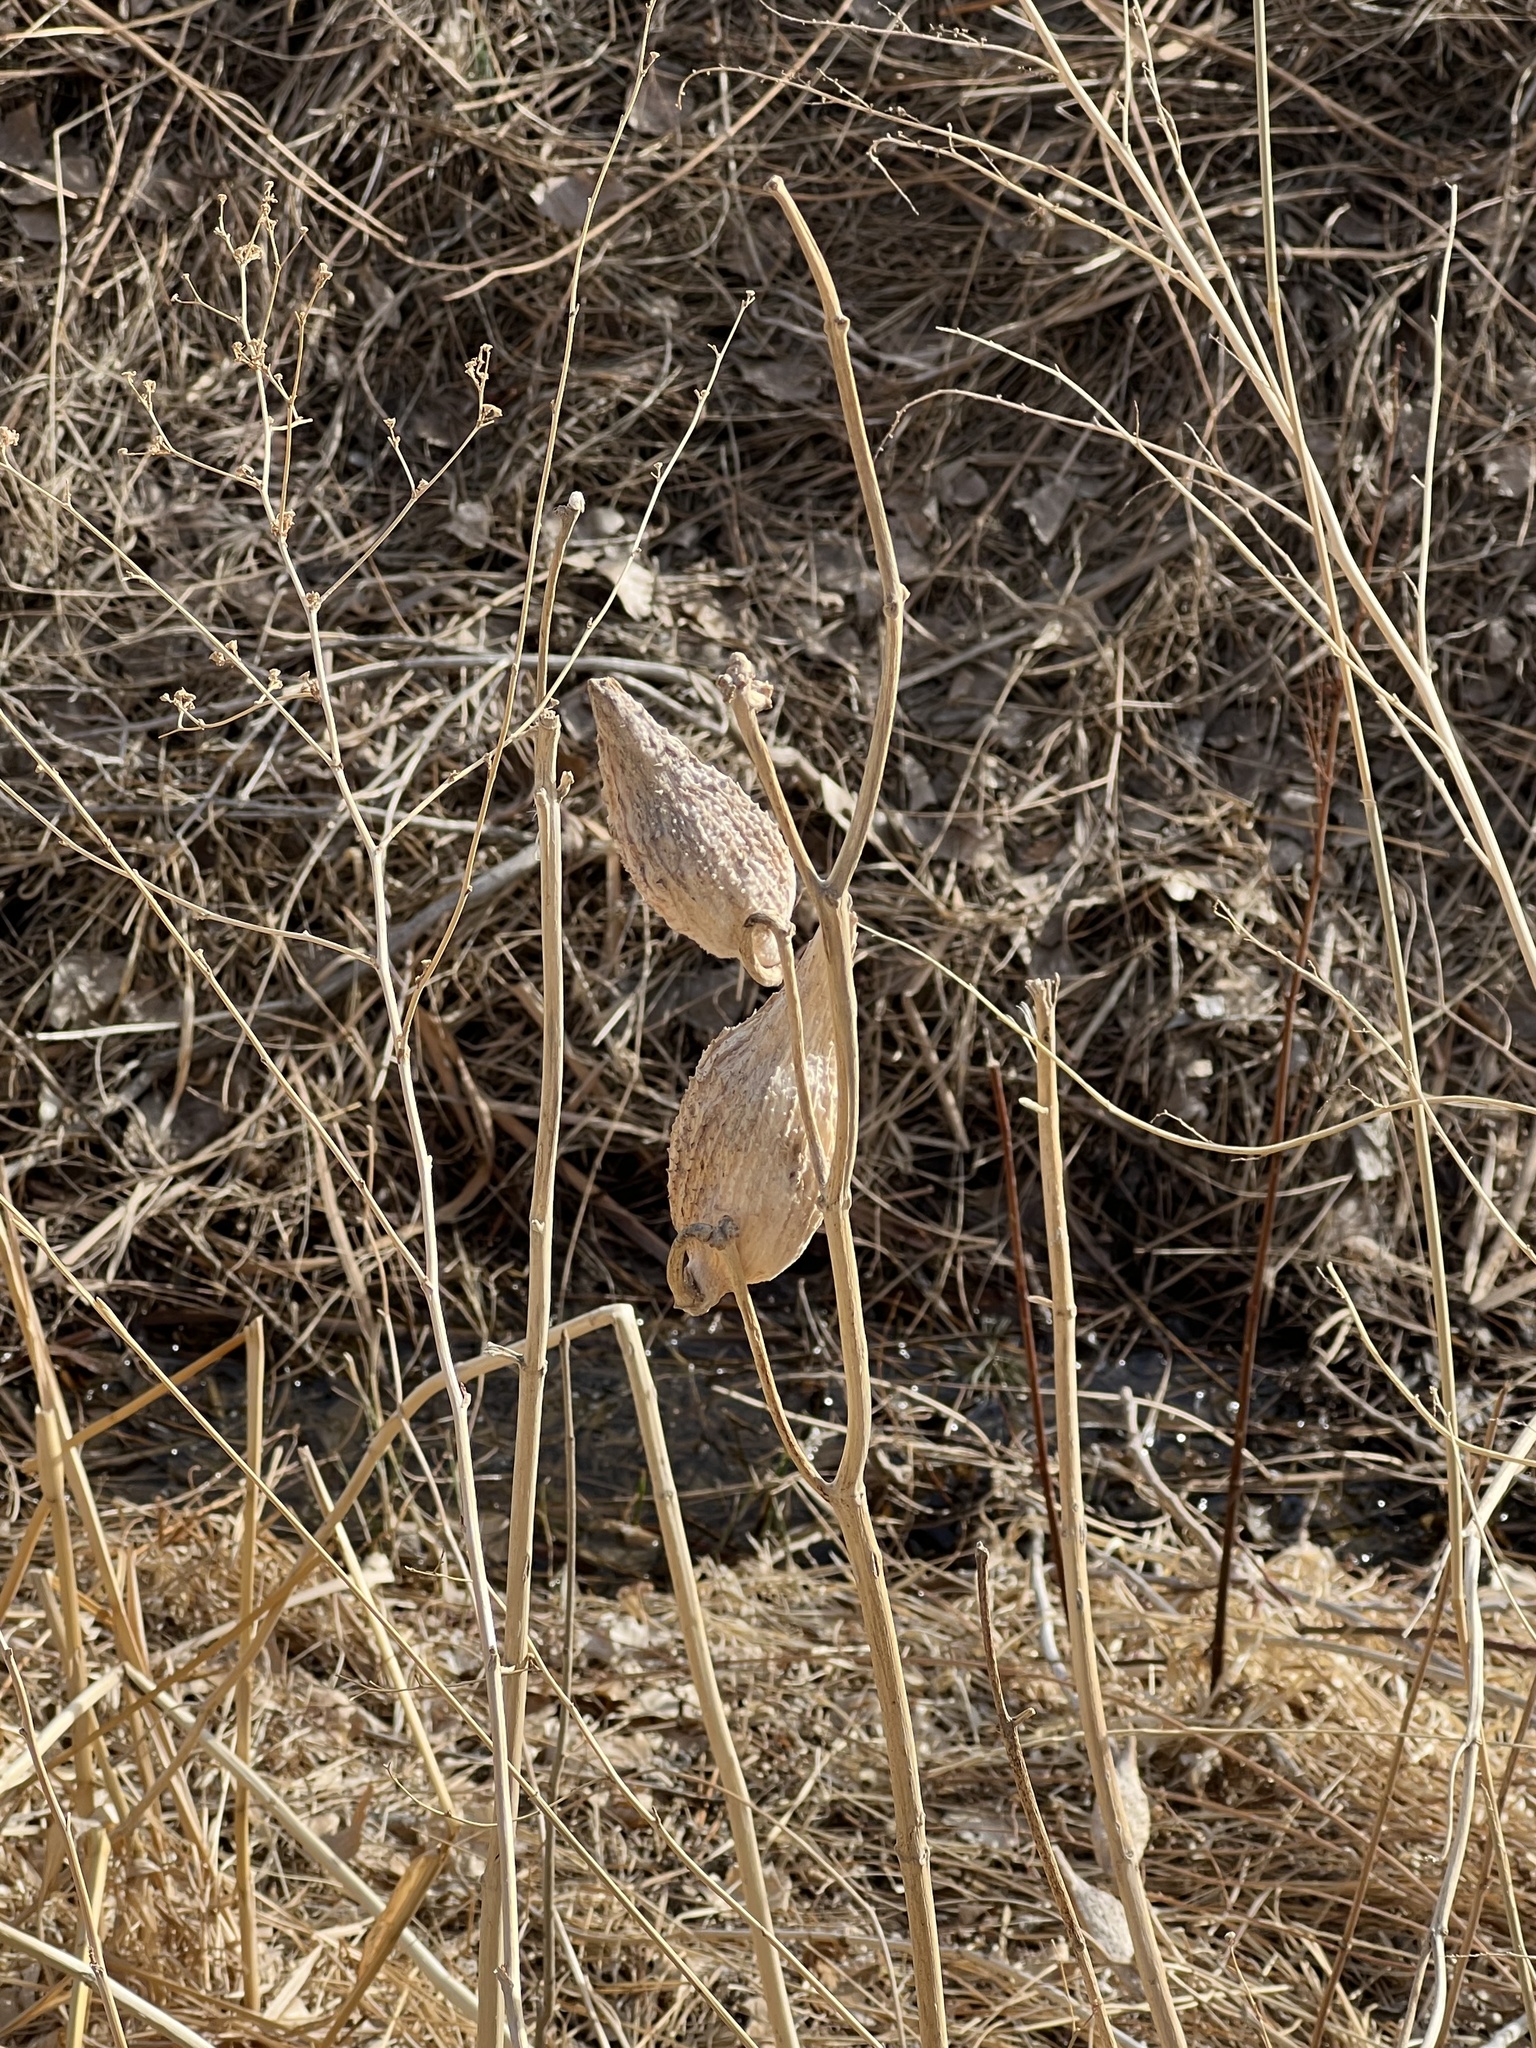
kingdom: Plantae
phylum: Tracheophyta
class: Magnoliopsida
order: Gentianales
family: Apocynaceae
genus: Asclepias
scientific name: Asclepias speciosa
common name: Showy milkweed
